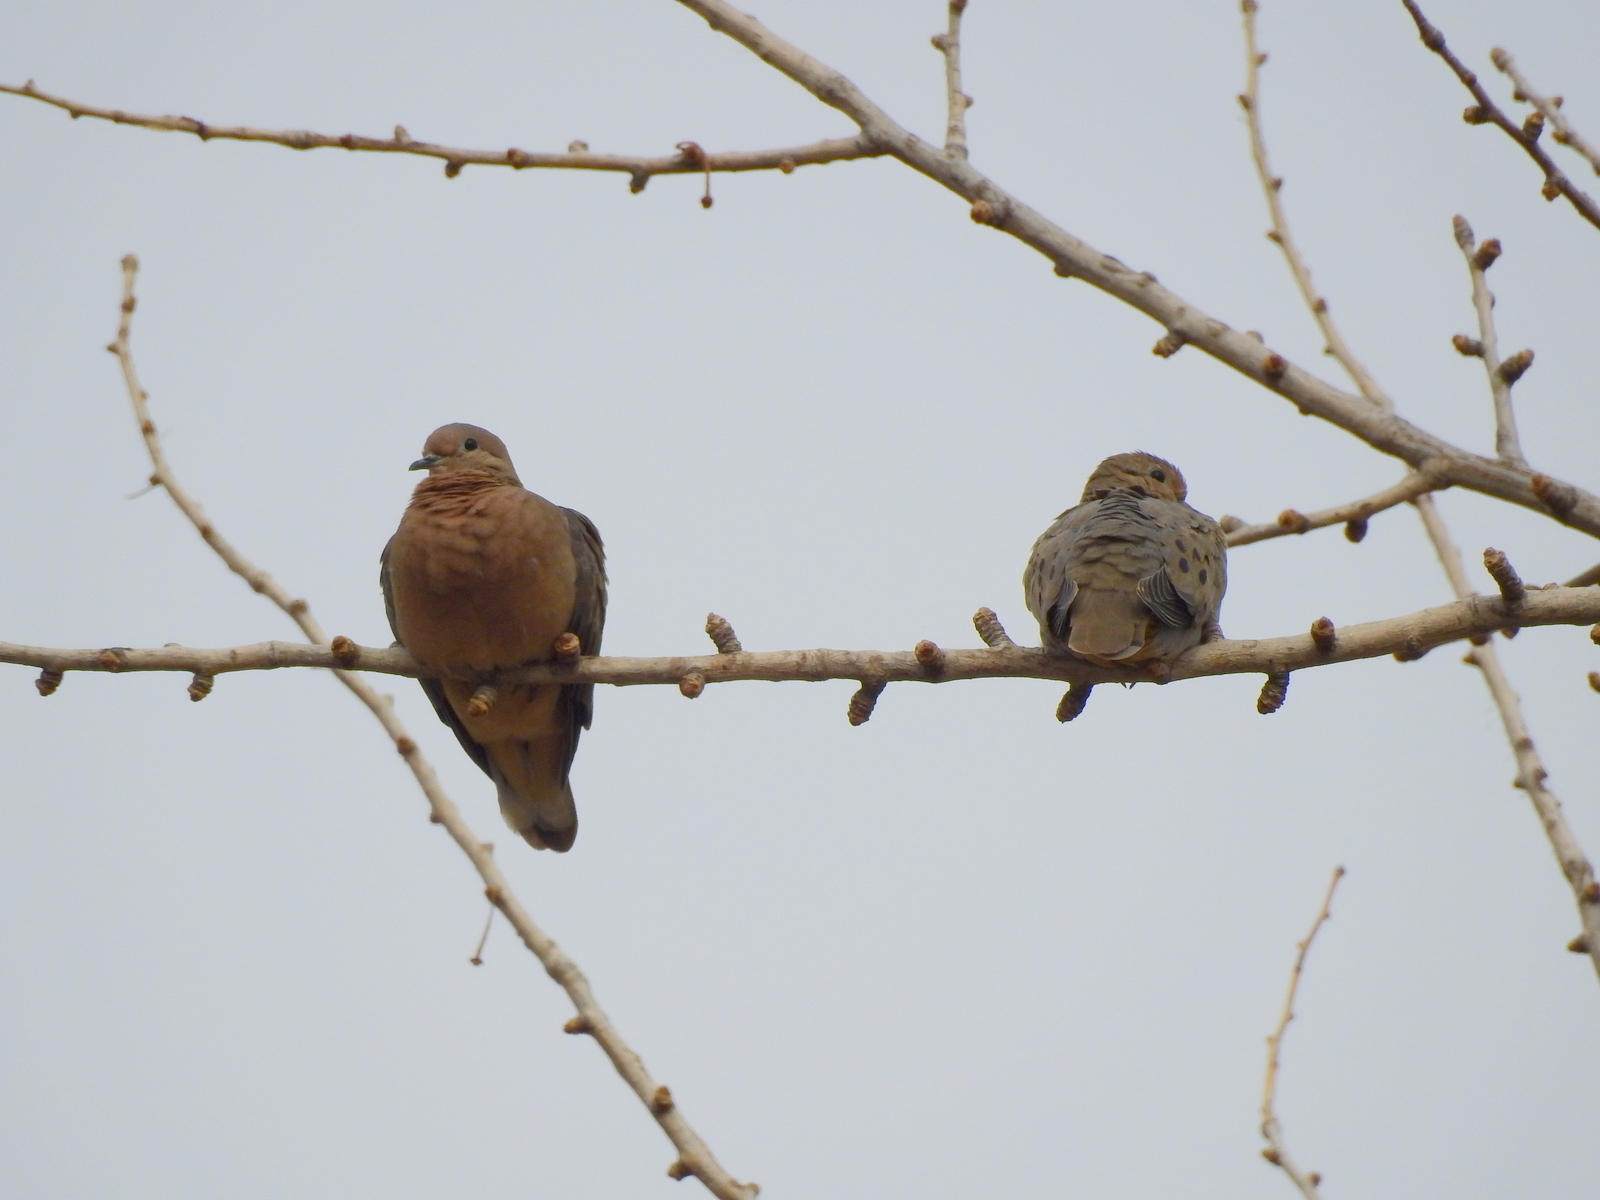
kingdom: Animalia
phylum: Chordata
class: Aves
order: Columbiformes
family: Columbidae
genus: Zenaida
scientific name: Zenaida auriculata
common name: Eared dove
